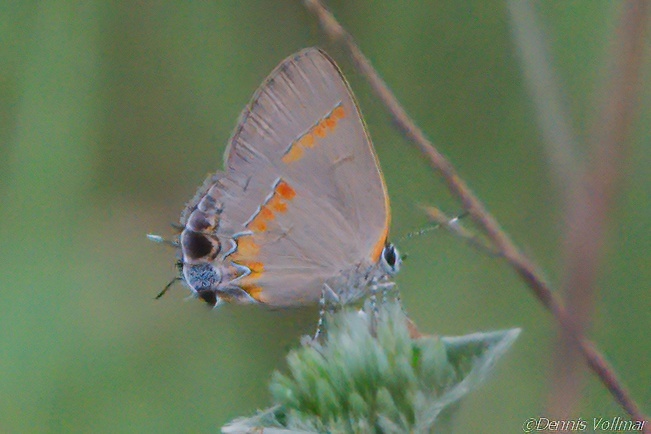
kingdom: Animalia
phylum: Arthropoda
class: Insecta
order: Lepidoptera
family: Lycaenidae
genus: Calycopis
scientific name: Calycopis cecrops
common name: Red-banded hairstreak
